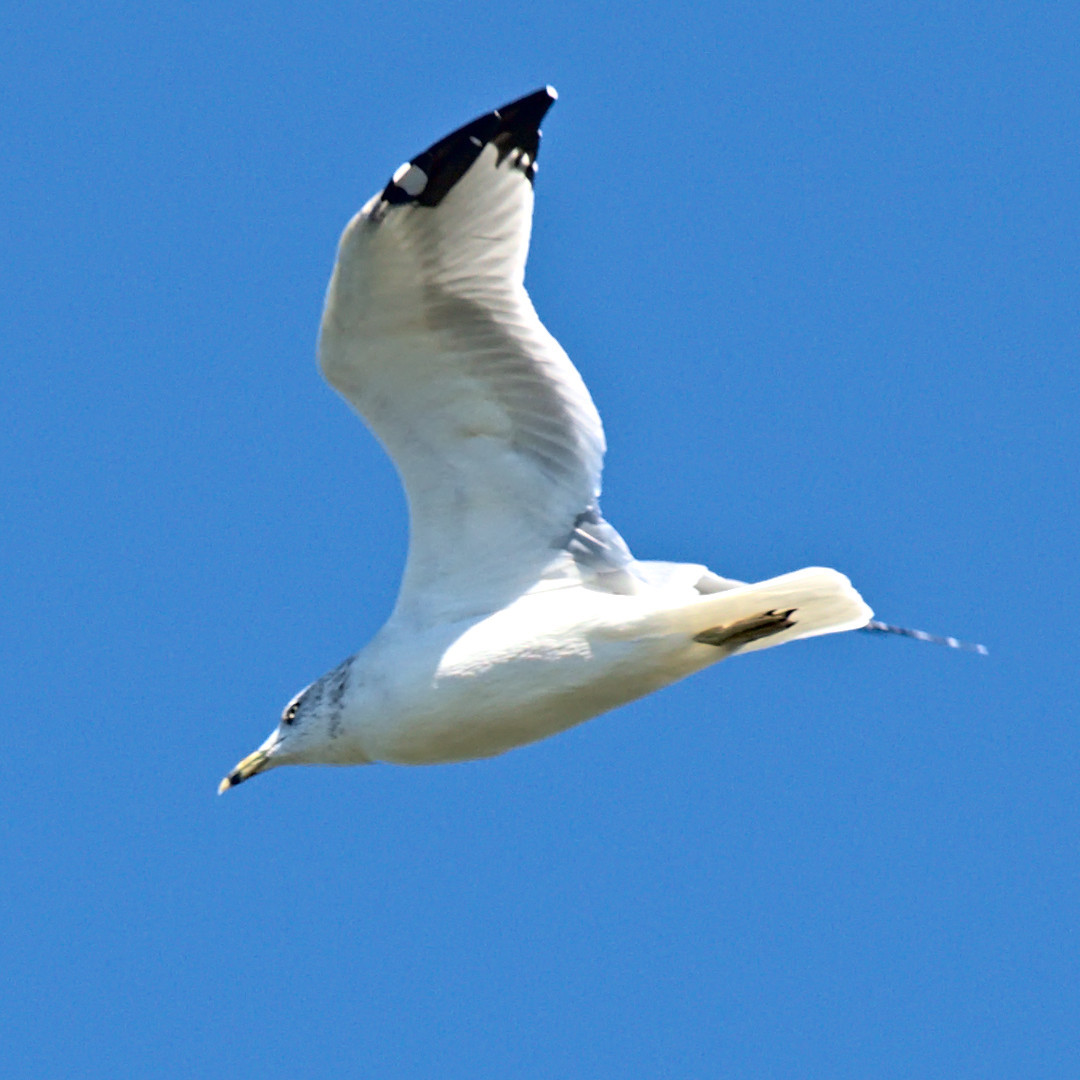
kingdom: Animalia
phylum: Chordata
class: Aves
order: Charadriiformes
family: Laridae
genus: Larus
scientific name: Larus delawarensis
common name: Ring-billed gull
